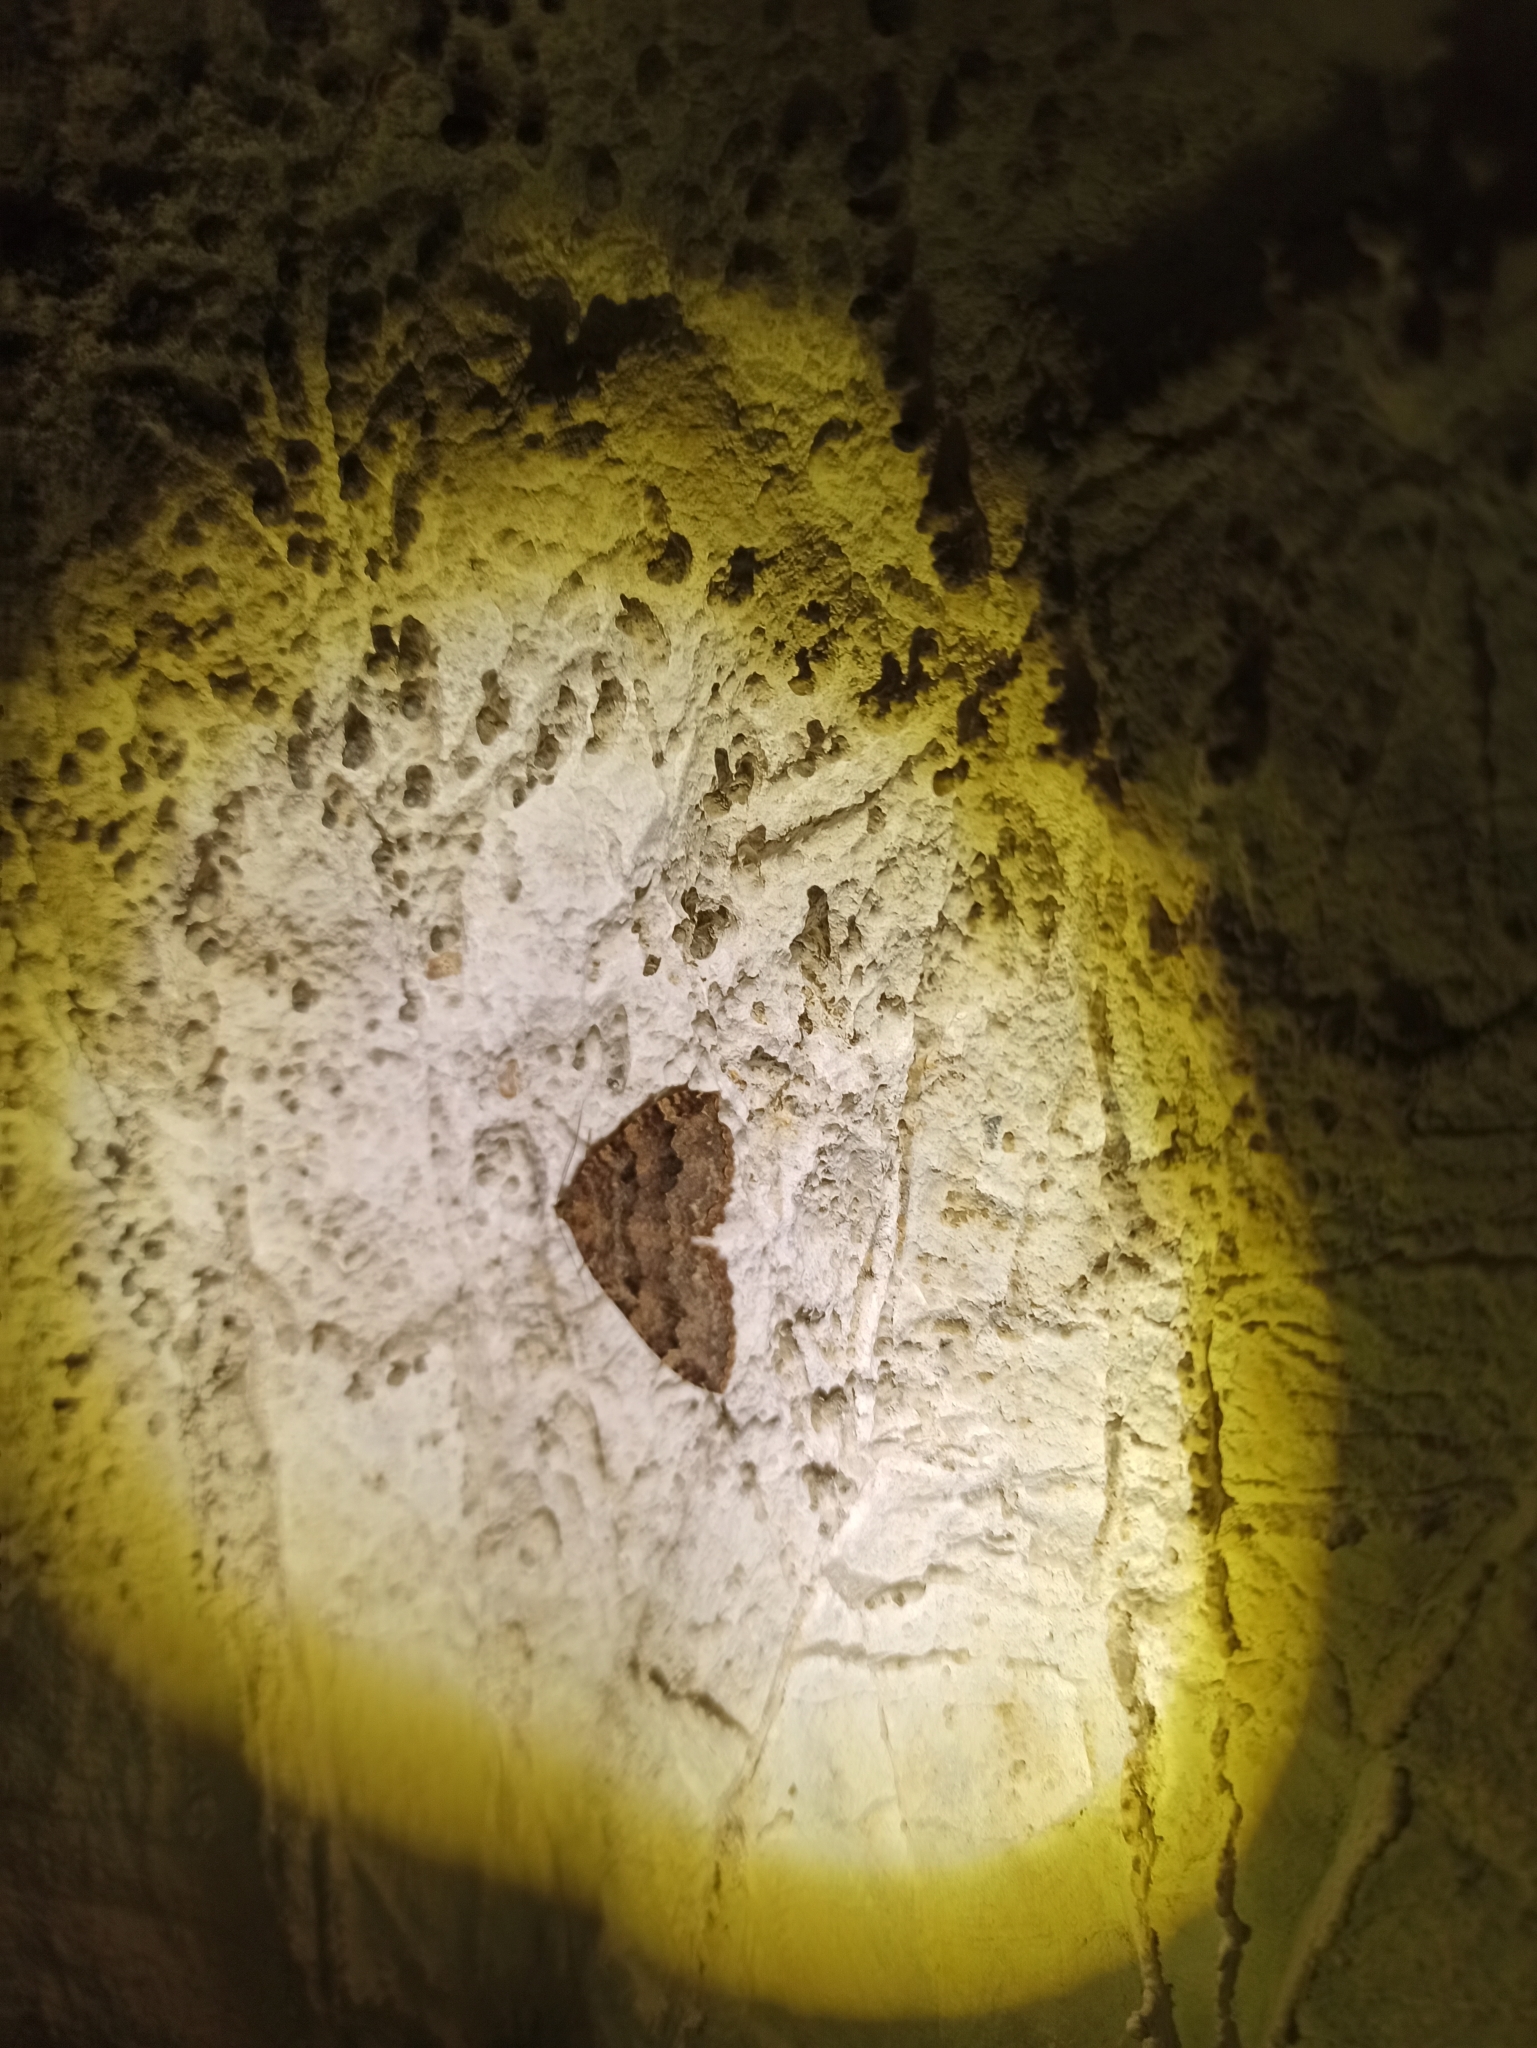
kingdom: Animalia
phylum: Arthropoda
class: Insecta
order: Lepidoptera
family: Geometridae
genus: Triphosa
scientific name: Triphosa dubitata
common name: Tissue
